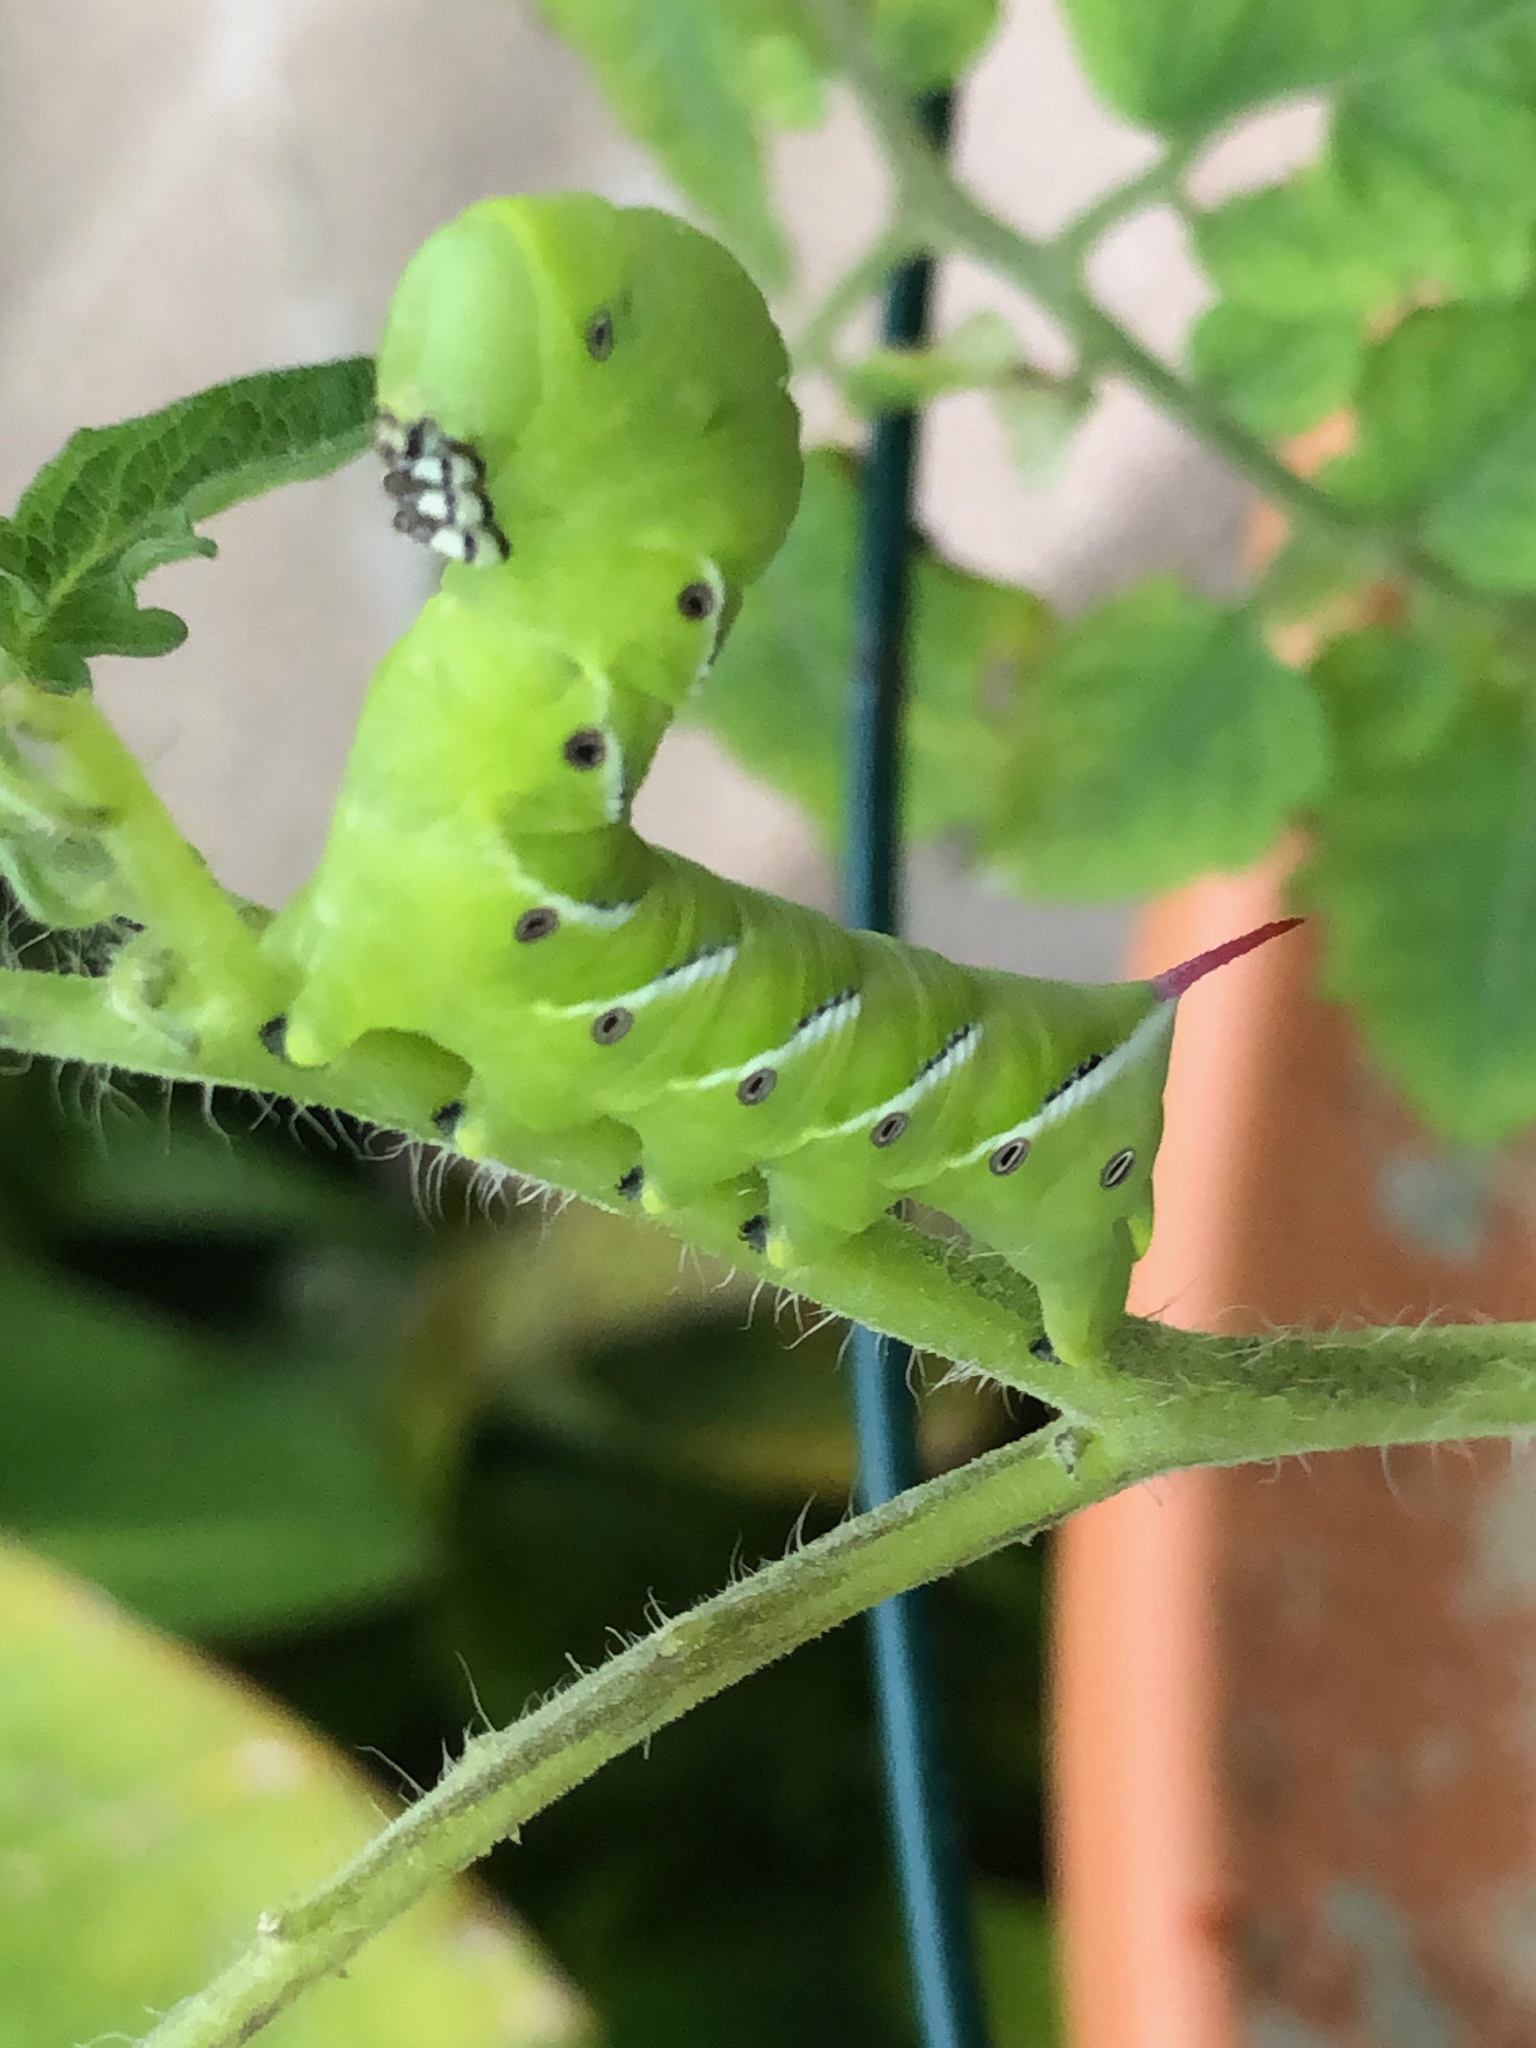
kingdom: Animalia
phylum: Arthropoda
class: Insecta
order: Lepidoptera
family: Sphingidae
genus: Manduca
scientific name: Manduca sexta
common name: Carolina sphinx
